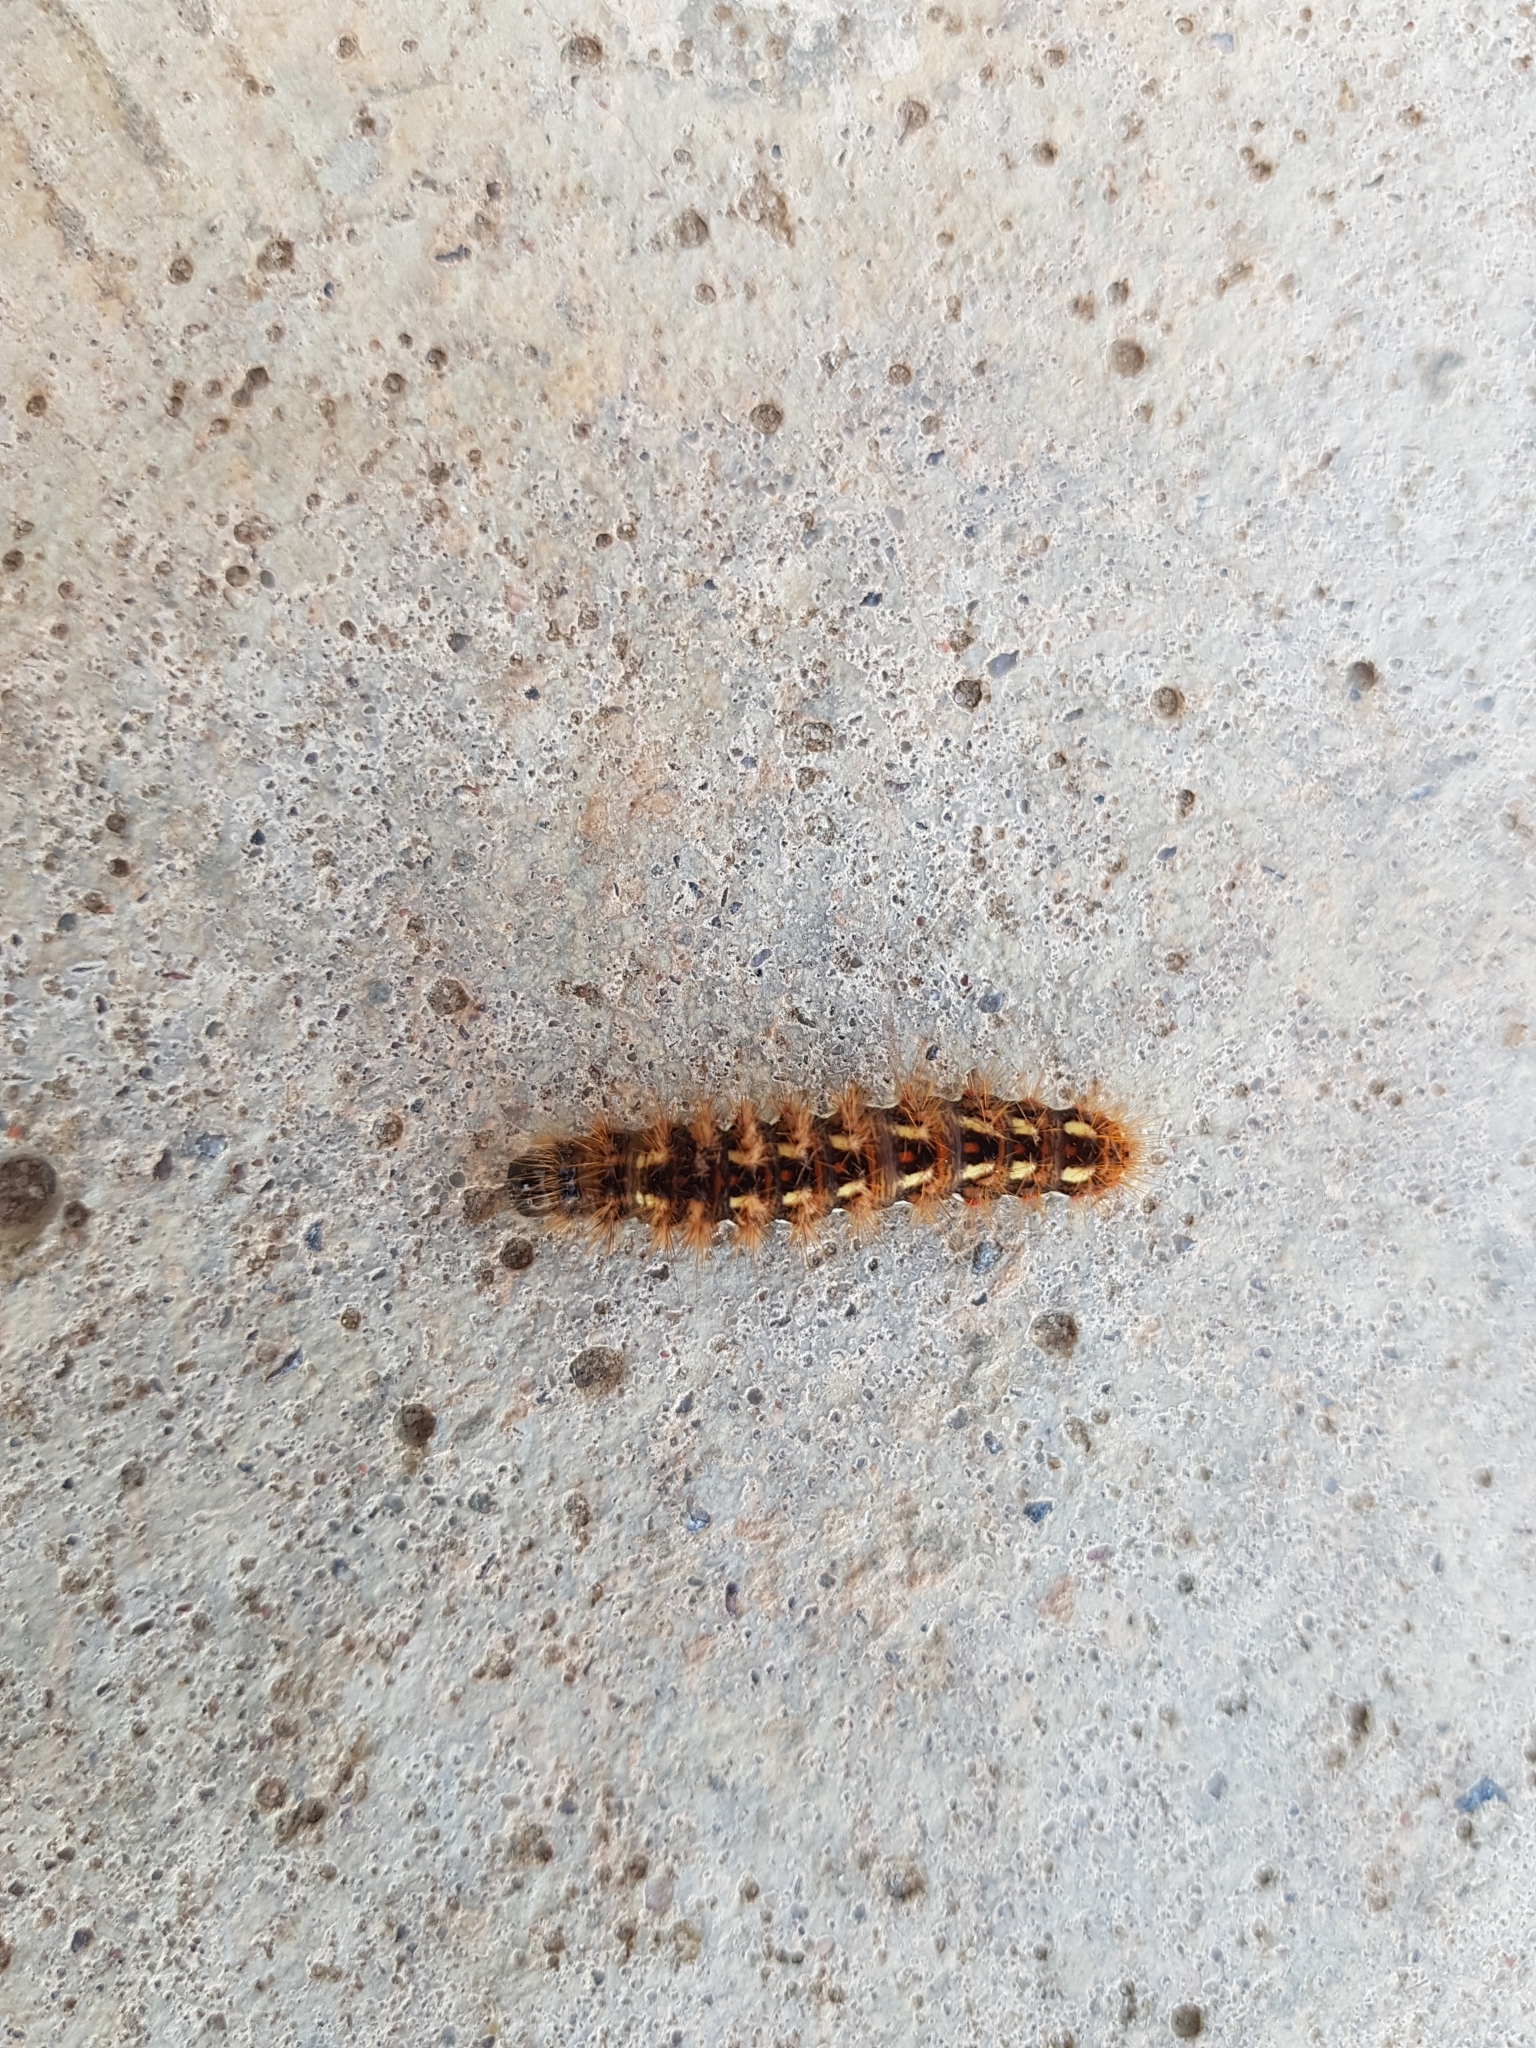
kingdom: Animalia
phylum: Arthropoda
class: Insecta
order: Lepidoptera
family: Noctuidae
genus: Acronicta
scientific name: Acronicta rumicis
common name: Knot grass
